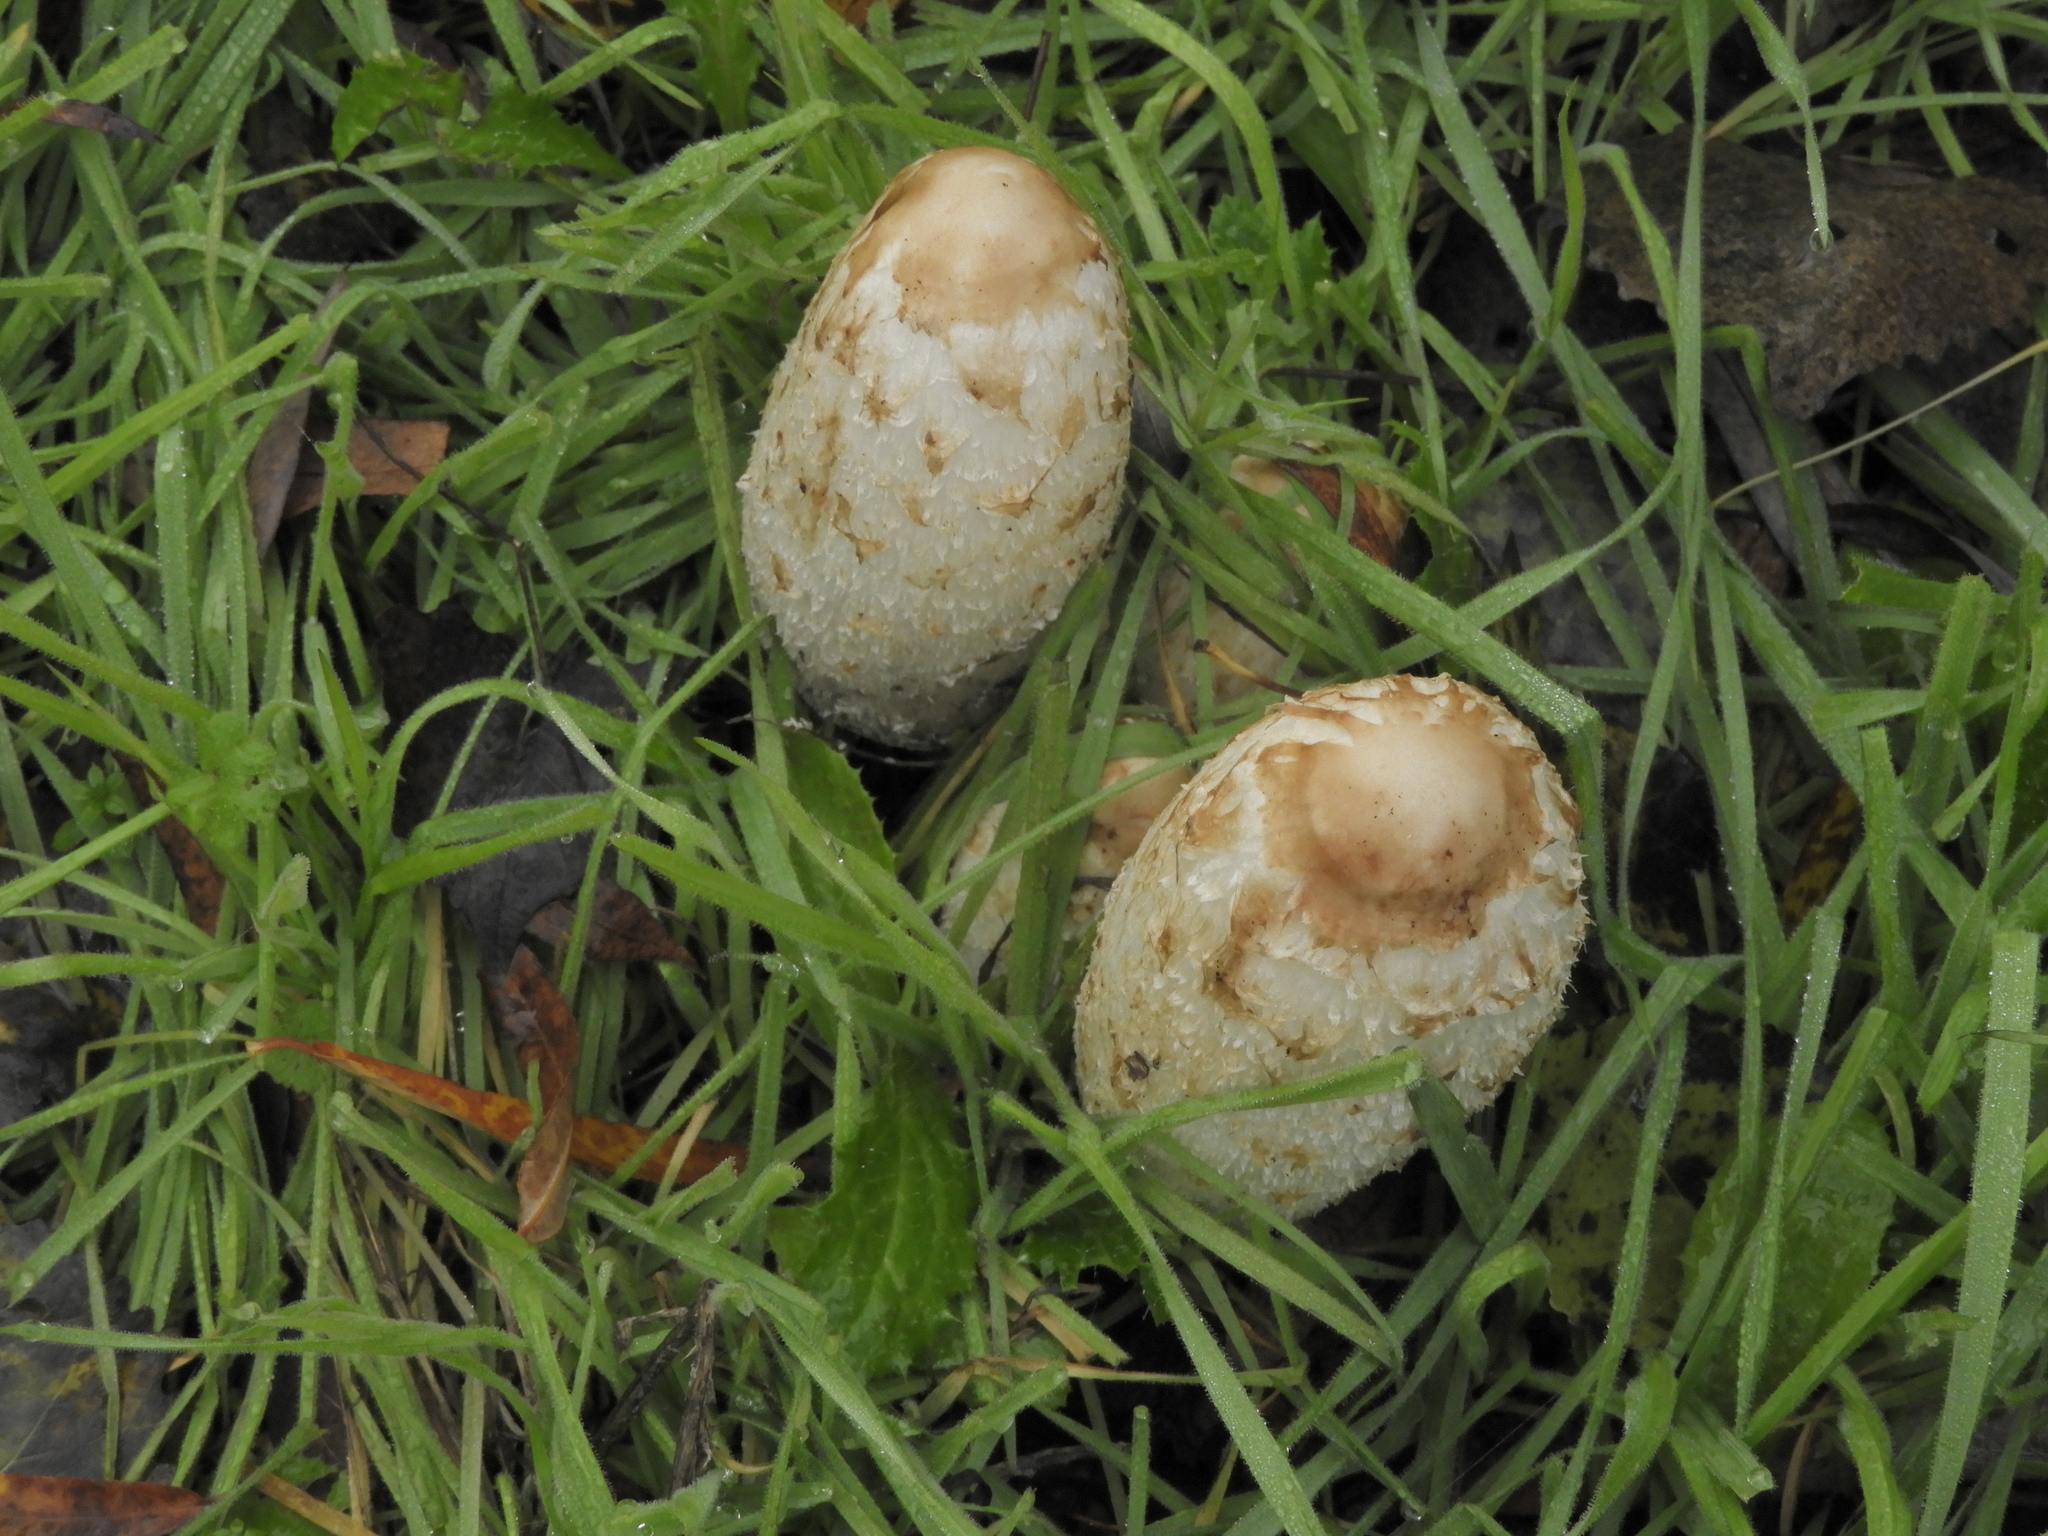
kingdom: Fungi
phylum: Basidiomycota
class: Agaricomycetes
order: Agaricales
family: Agaricaceae
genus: Coprinus
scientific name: Coprinus comatus
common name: Lawyer's wig
